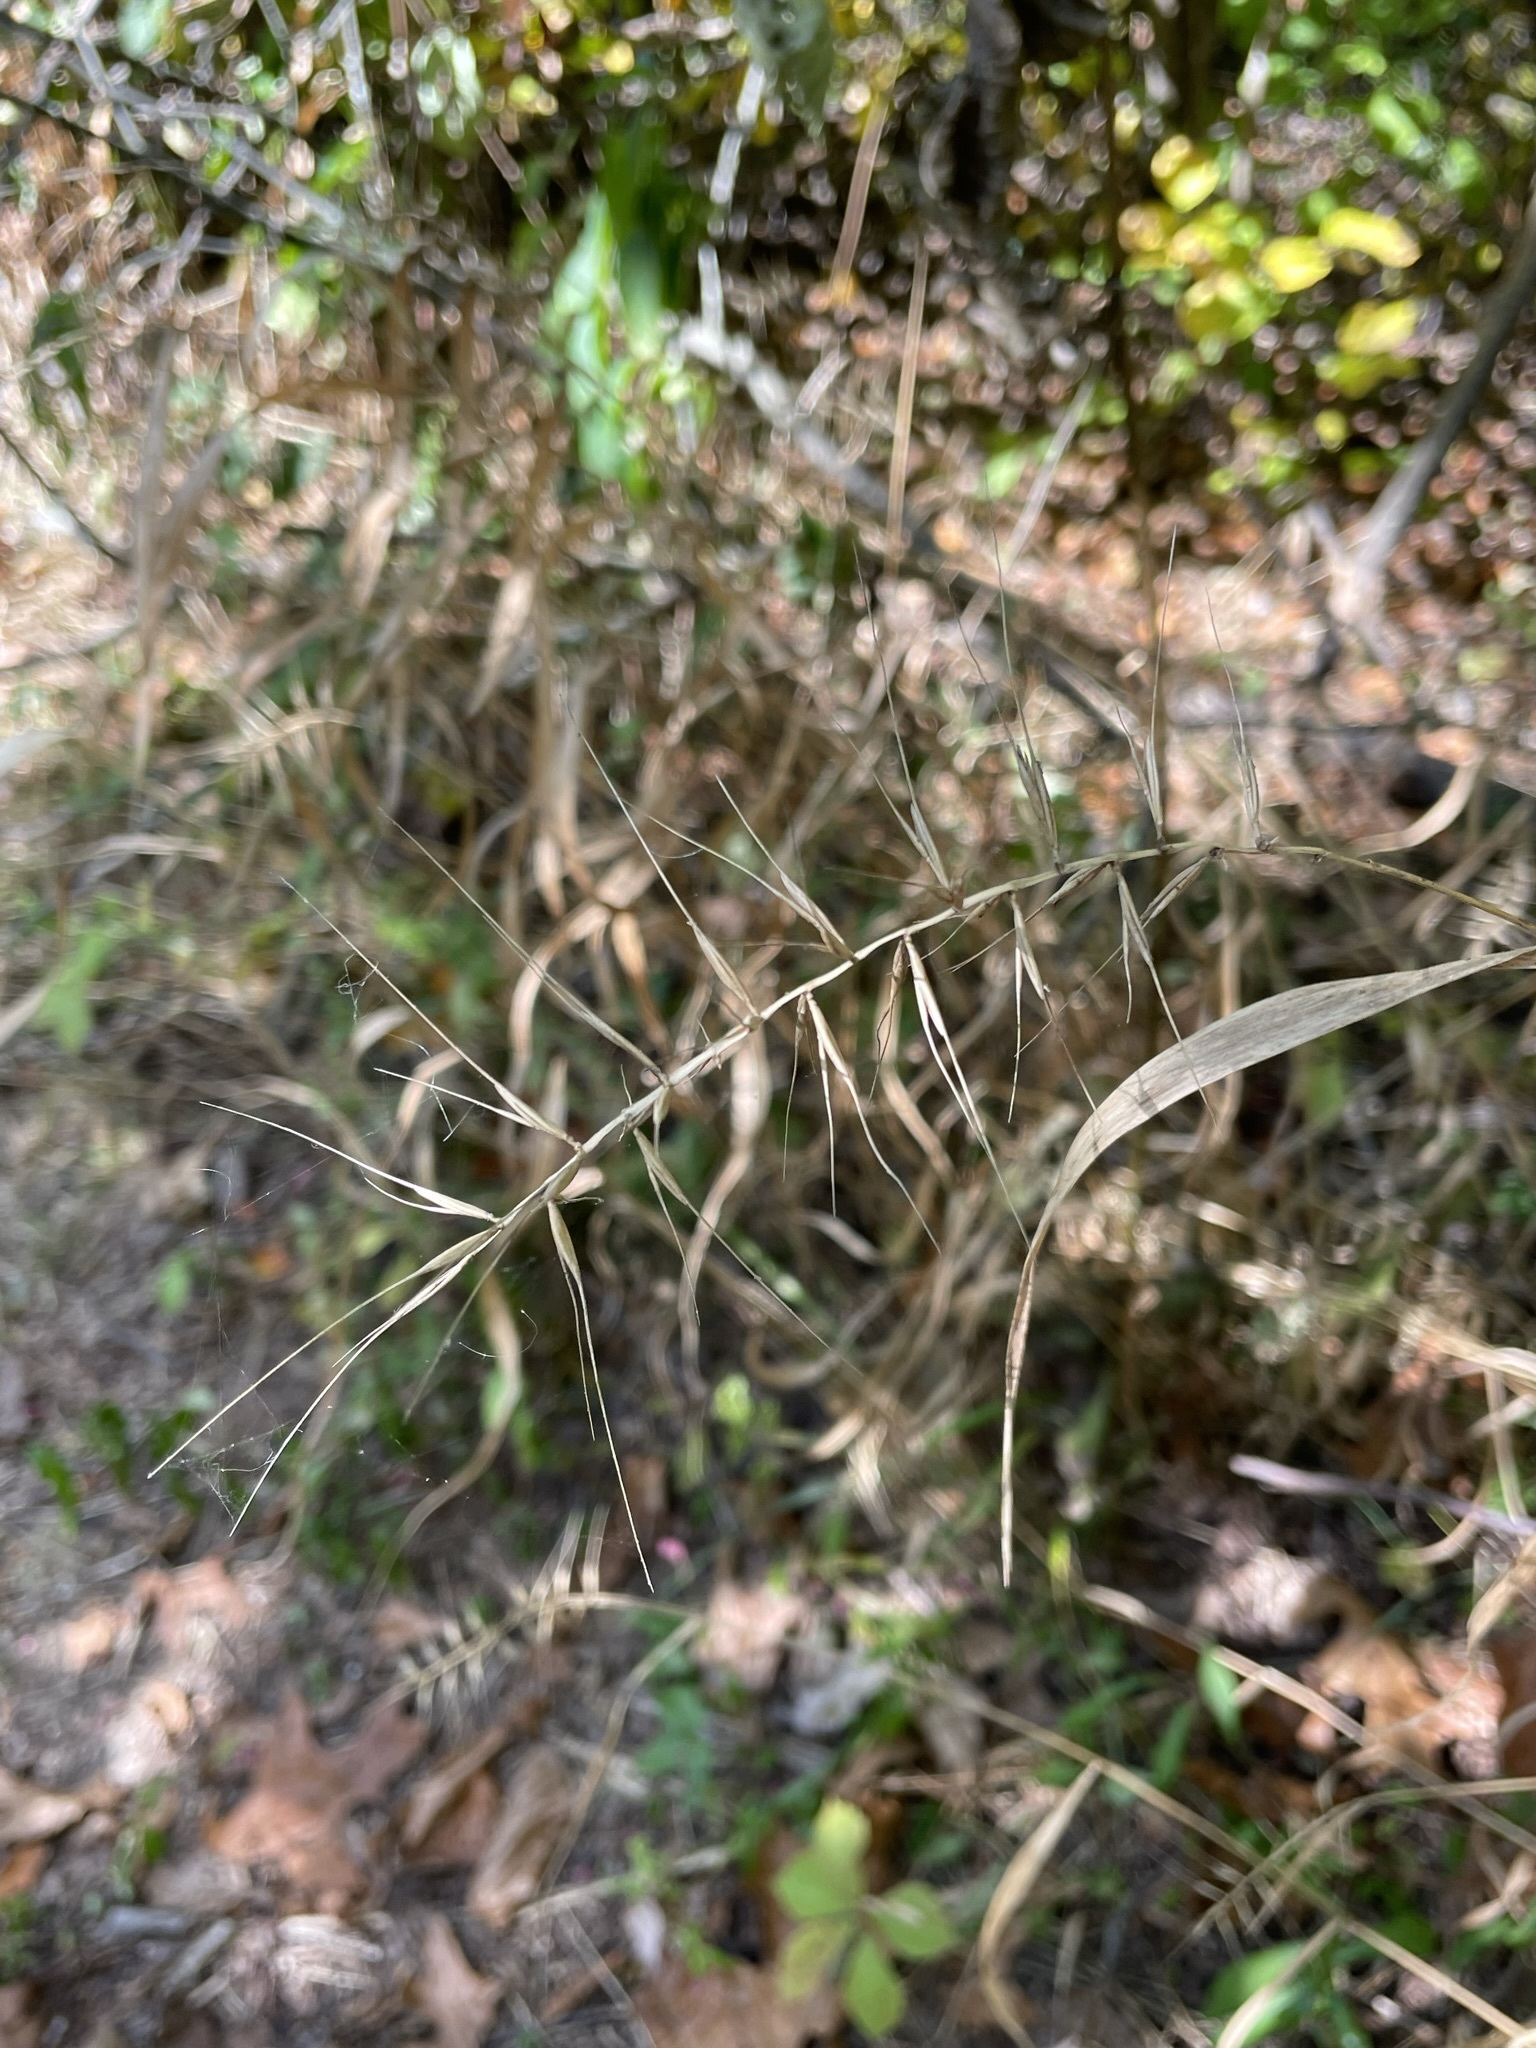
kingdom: Plantae
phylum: Tracheophyta
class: Liliopsida
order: Poales
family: Poaceae
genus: Elymus
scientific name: Elymus hystrix
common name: Bottlebrush grass
